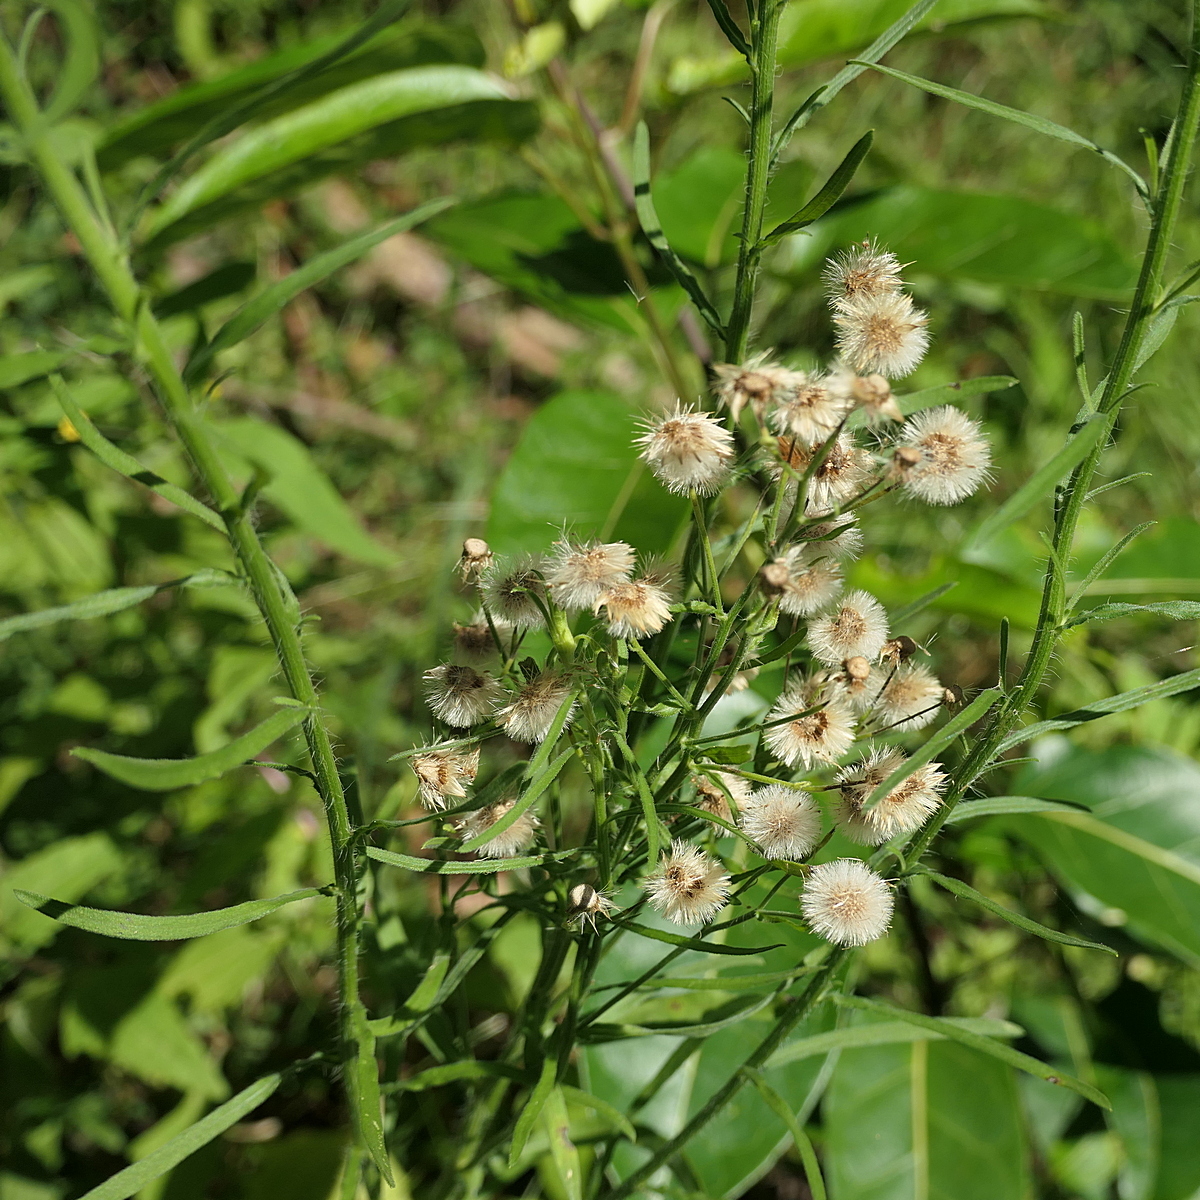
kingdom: Plantae
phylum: Tracheophyta
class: Magnoliopsida
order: Asterales
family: Asteraceae
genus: Erigeron
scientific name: Erigeron bonariensis
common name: Argentine fleabane
